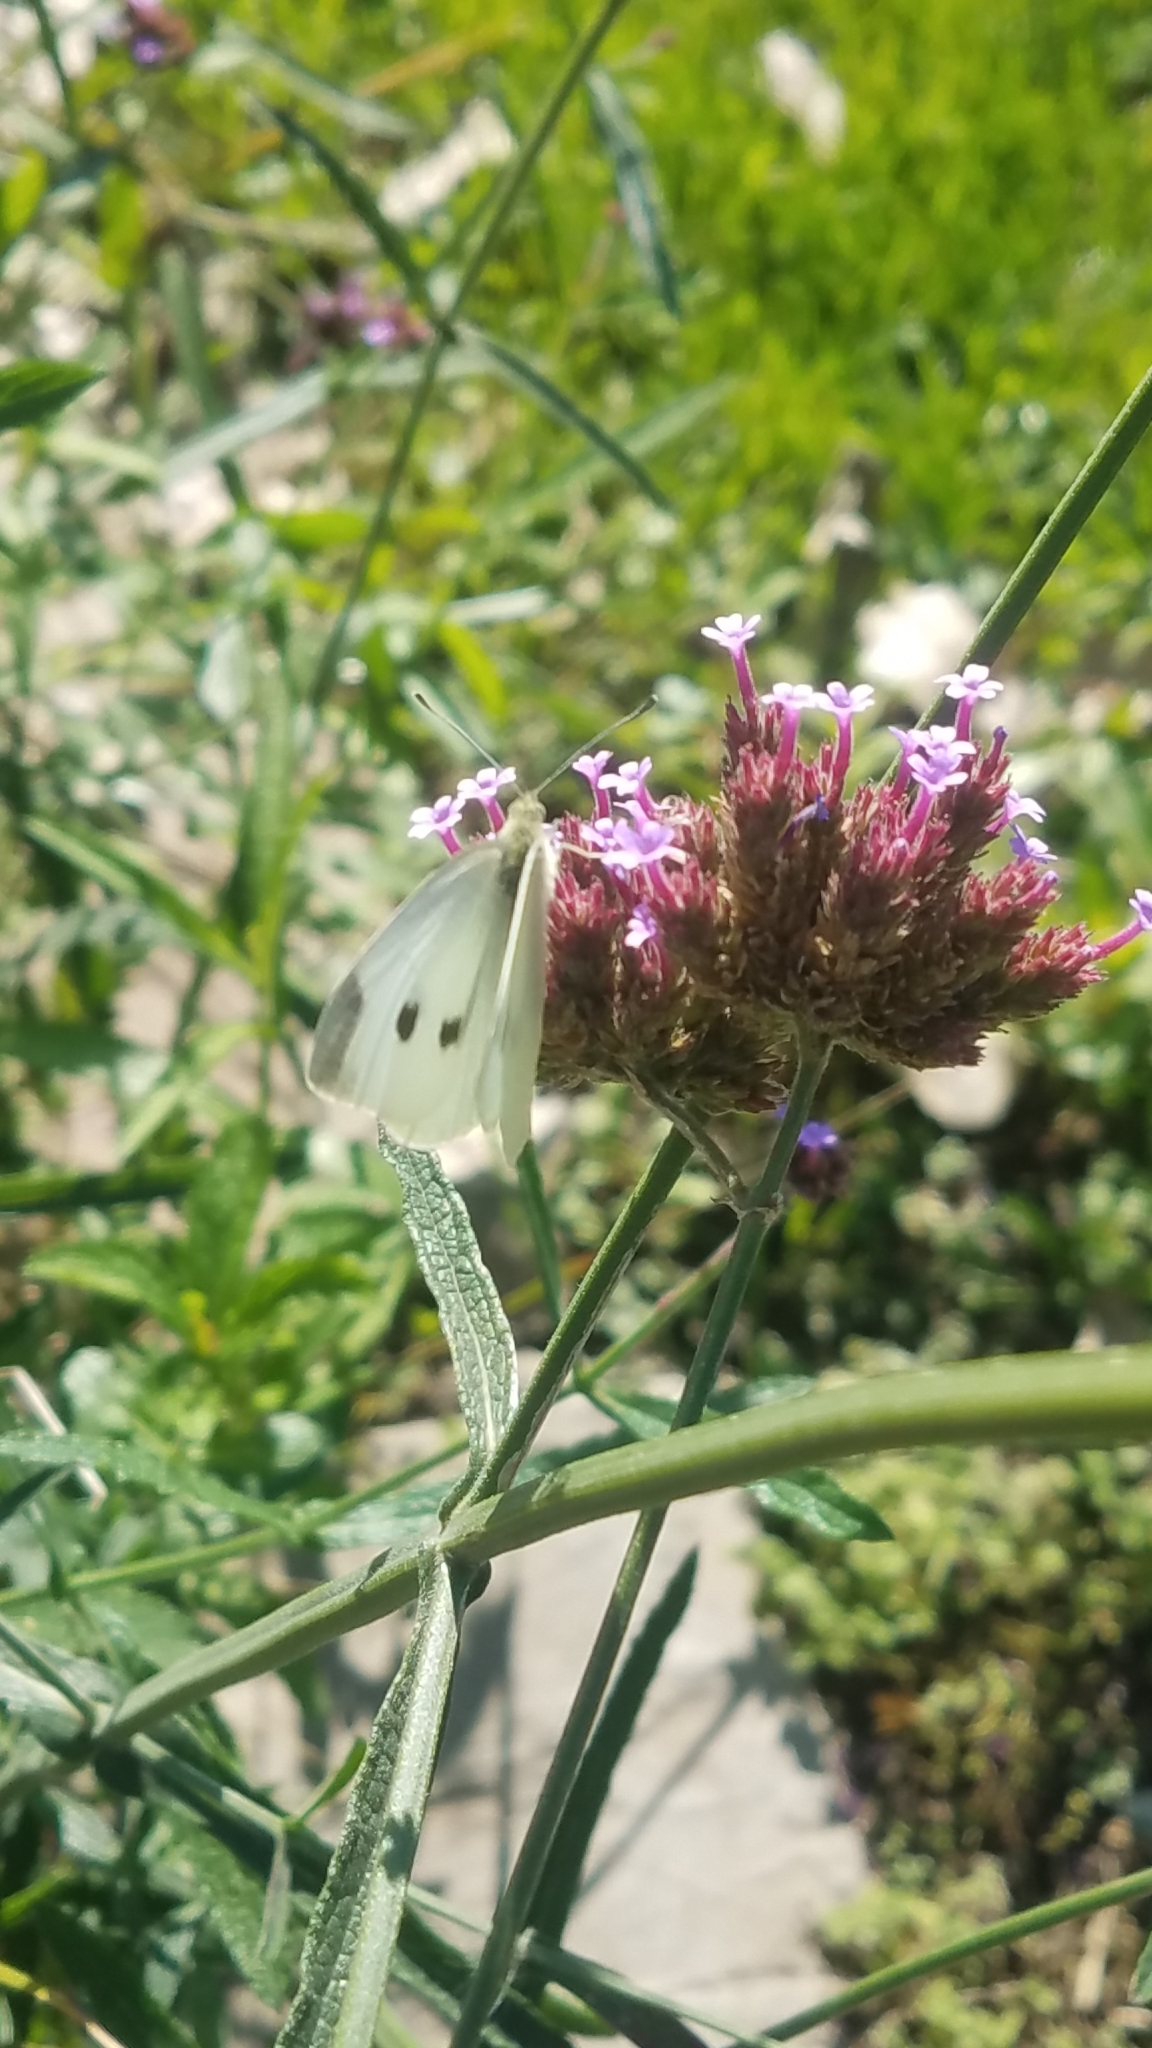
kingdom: Animalia
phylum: Arthropoda
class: Insecta
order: Lepidoptera
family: Pieridae
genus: Pieris
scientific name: Pieris rapae
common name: Small white
